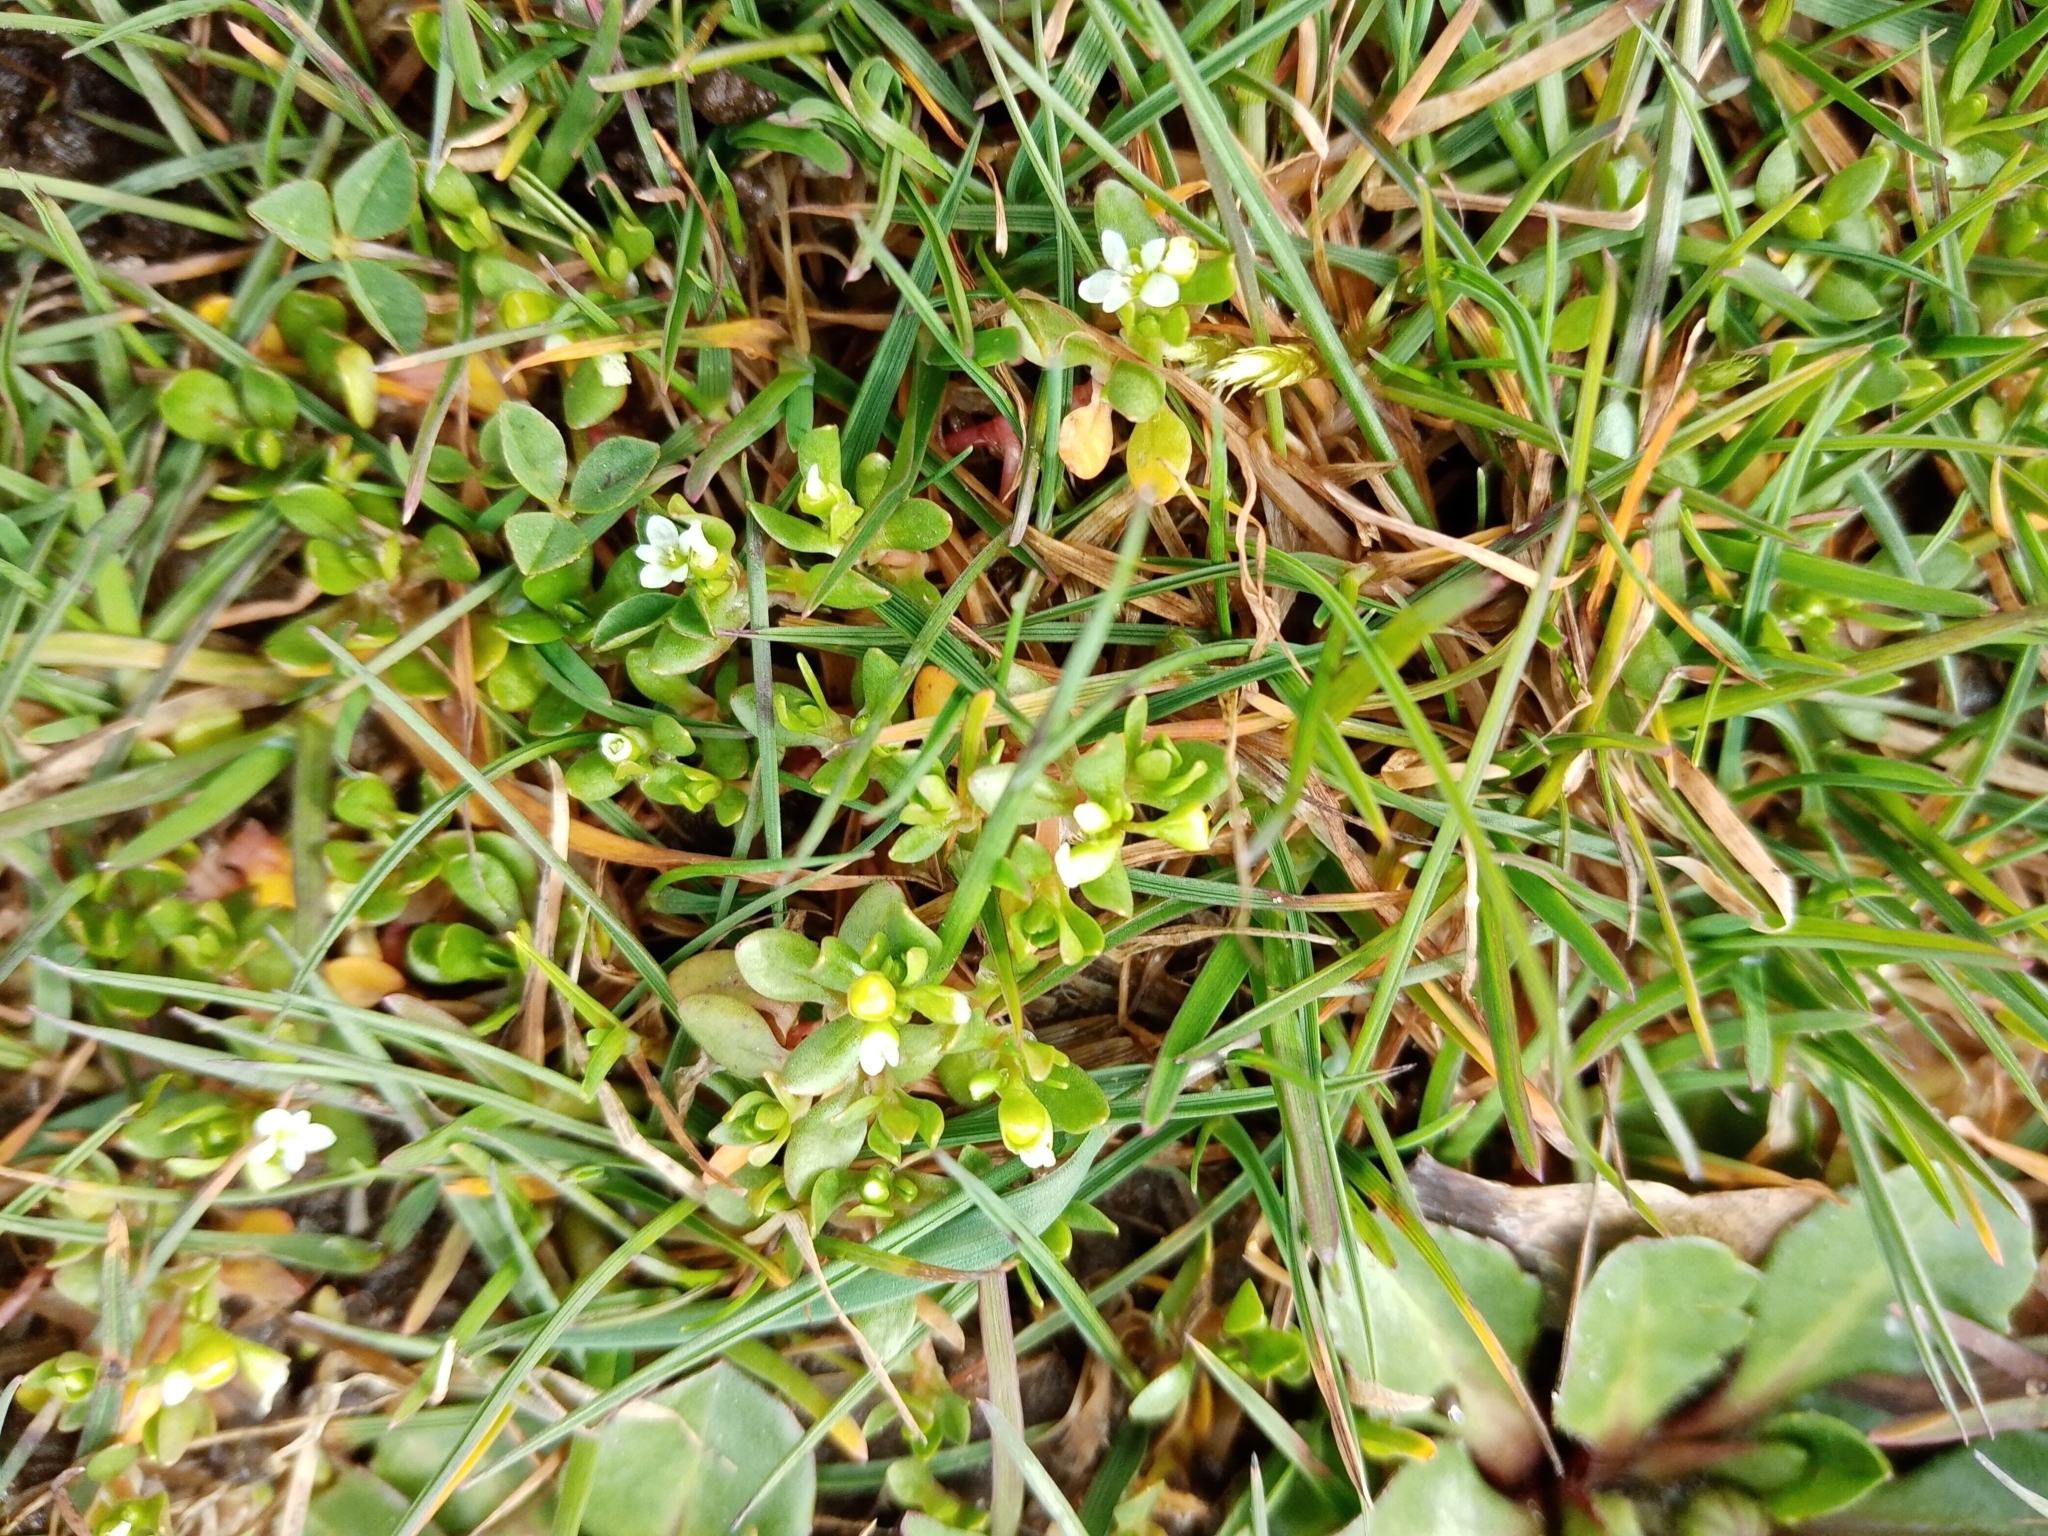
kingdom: Plantae
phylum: Tracheophyta
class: Magnoliopsida
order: Caryophyllales
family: Montiaceae
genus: Montia
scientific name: Montia fontana
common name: Blinks
